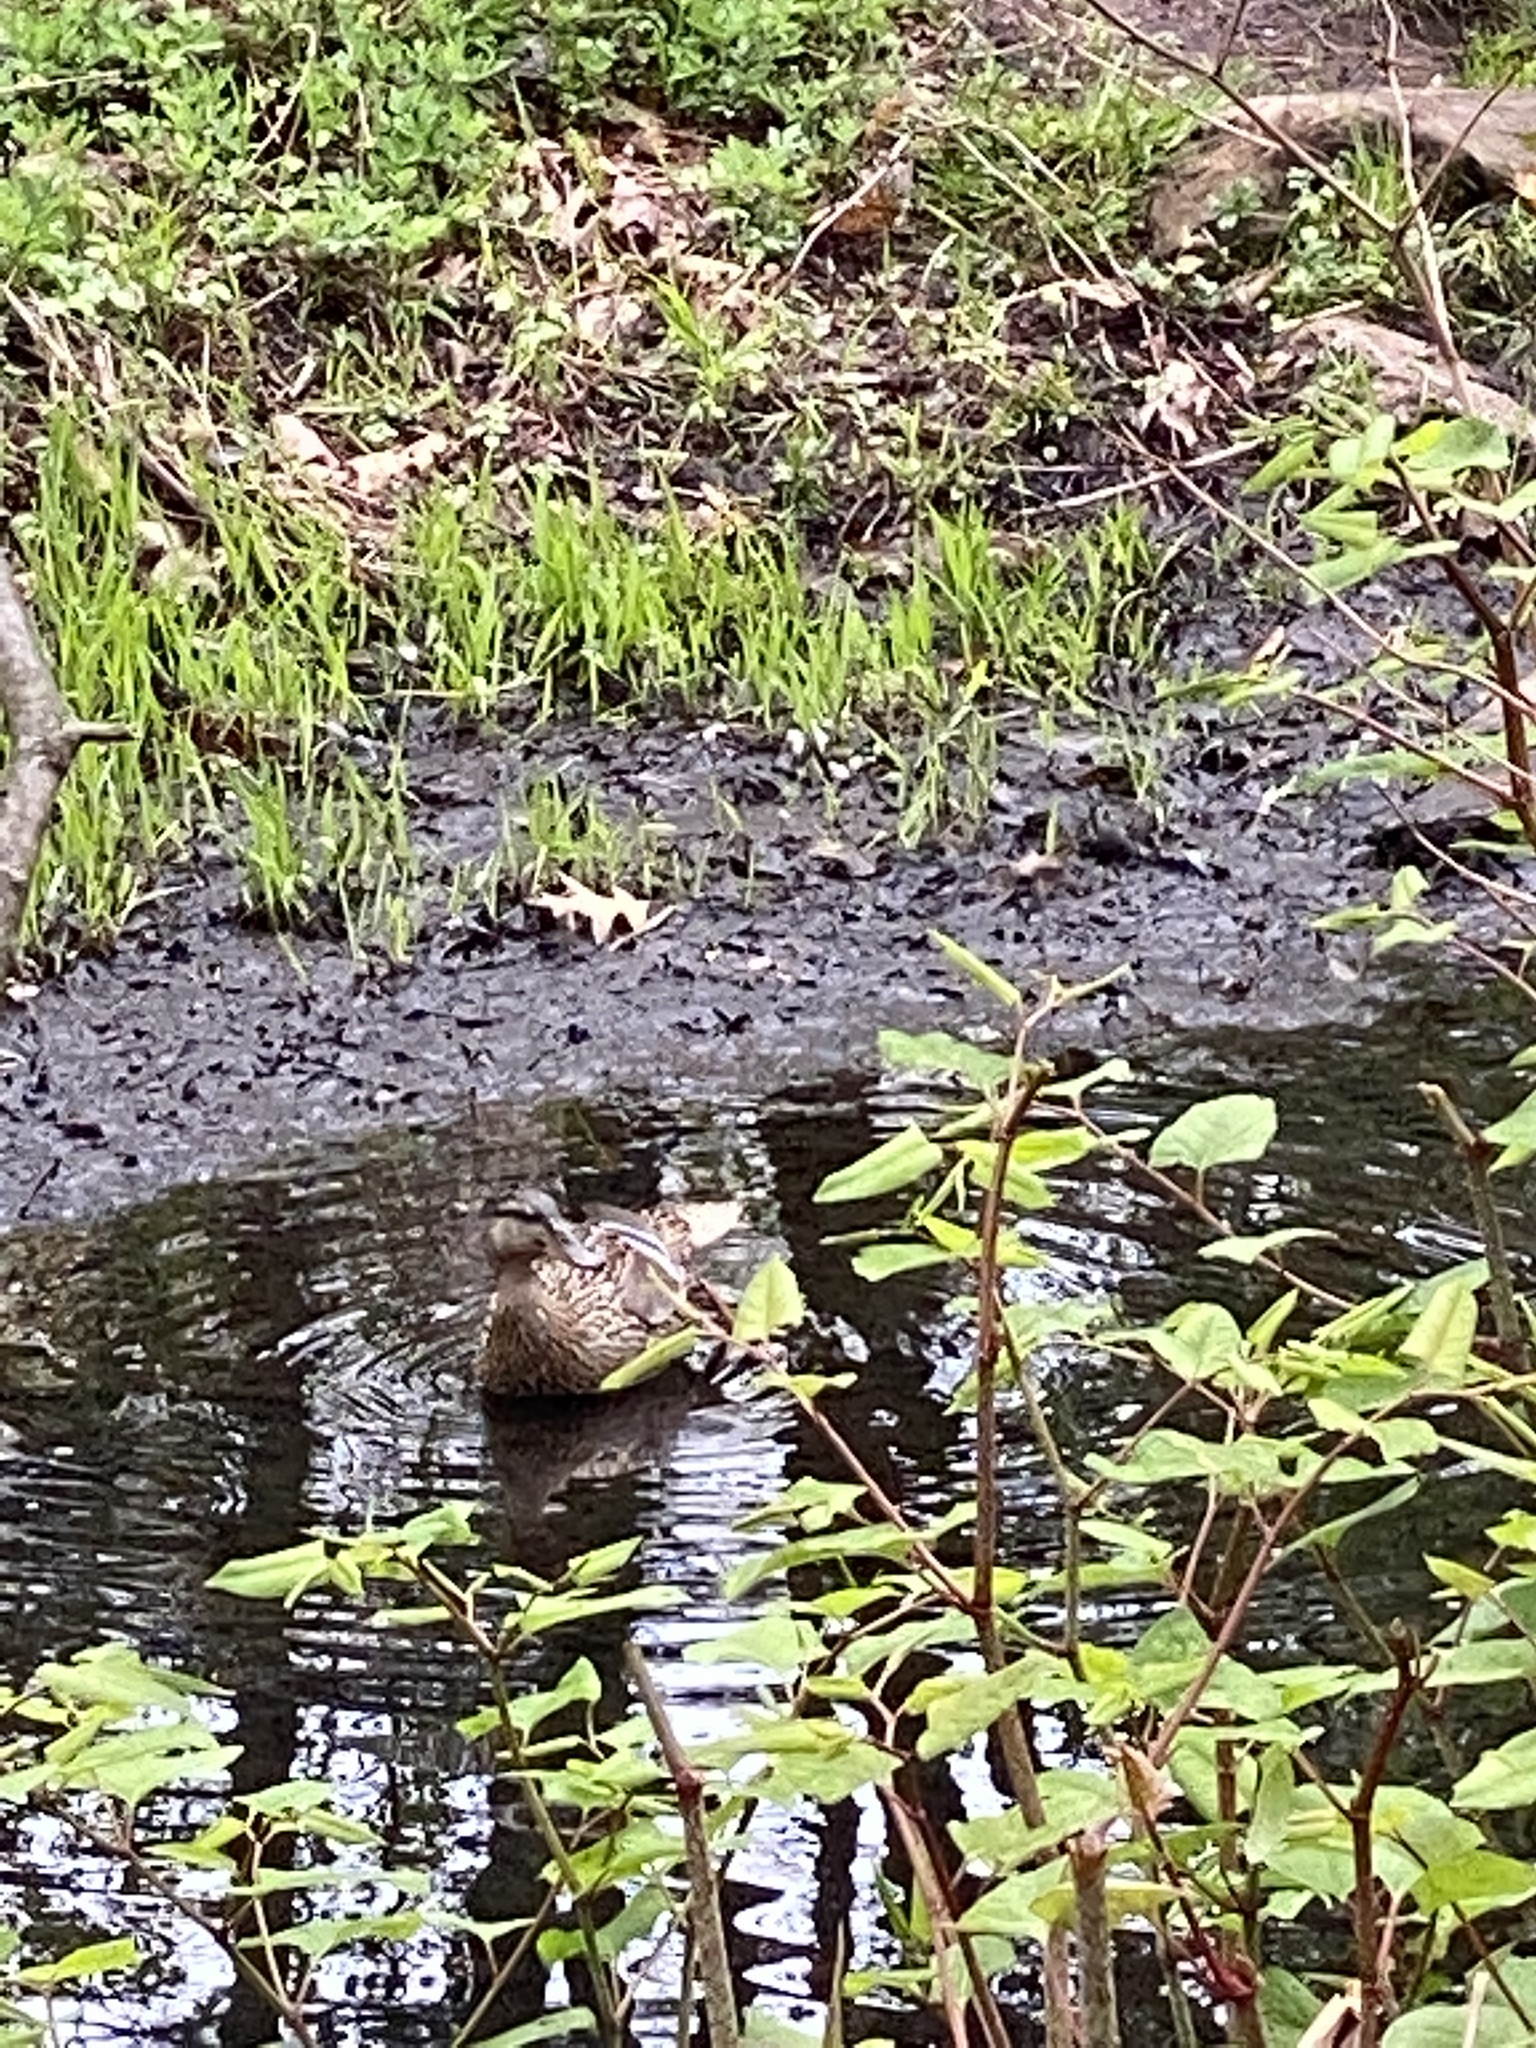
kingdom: Animalia
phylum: Chordata
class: Aves
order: Anseriformes
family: Anatidae
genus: Anas
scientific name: Anas platyrhynchos
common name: Mallard
